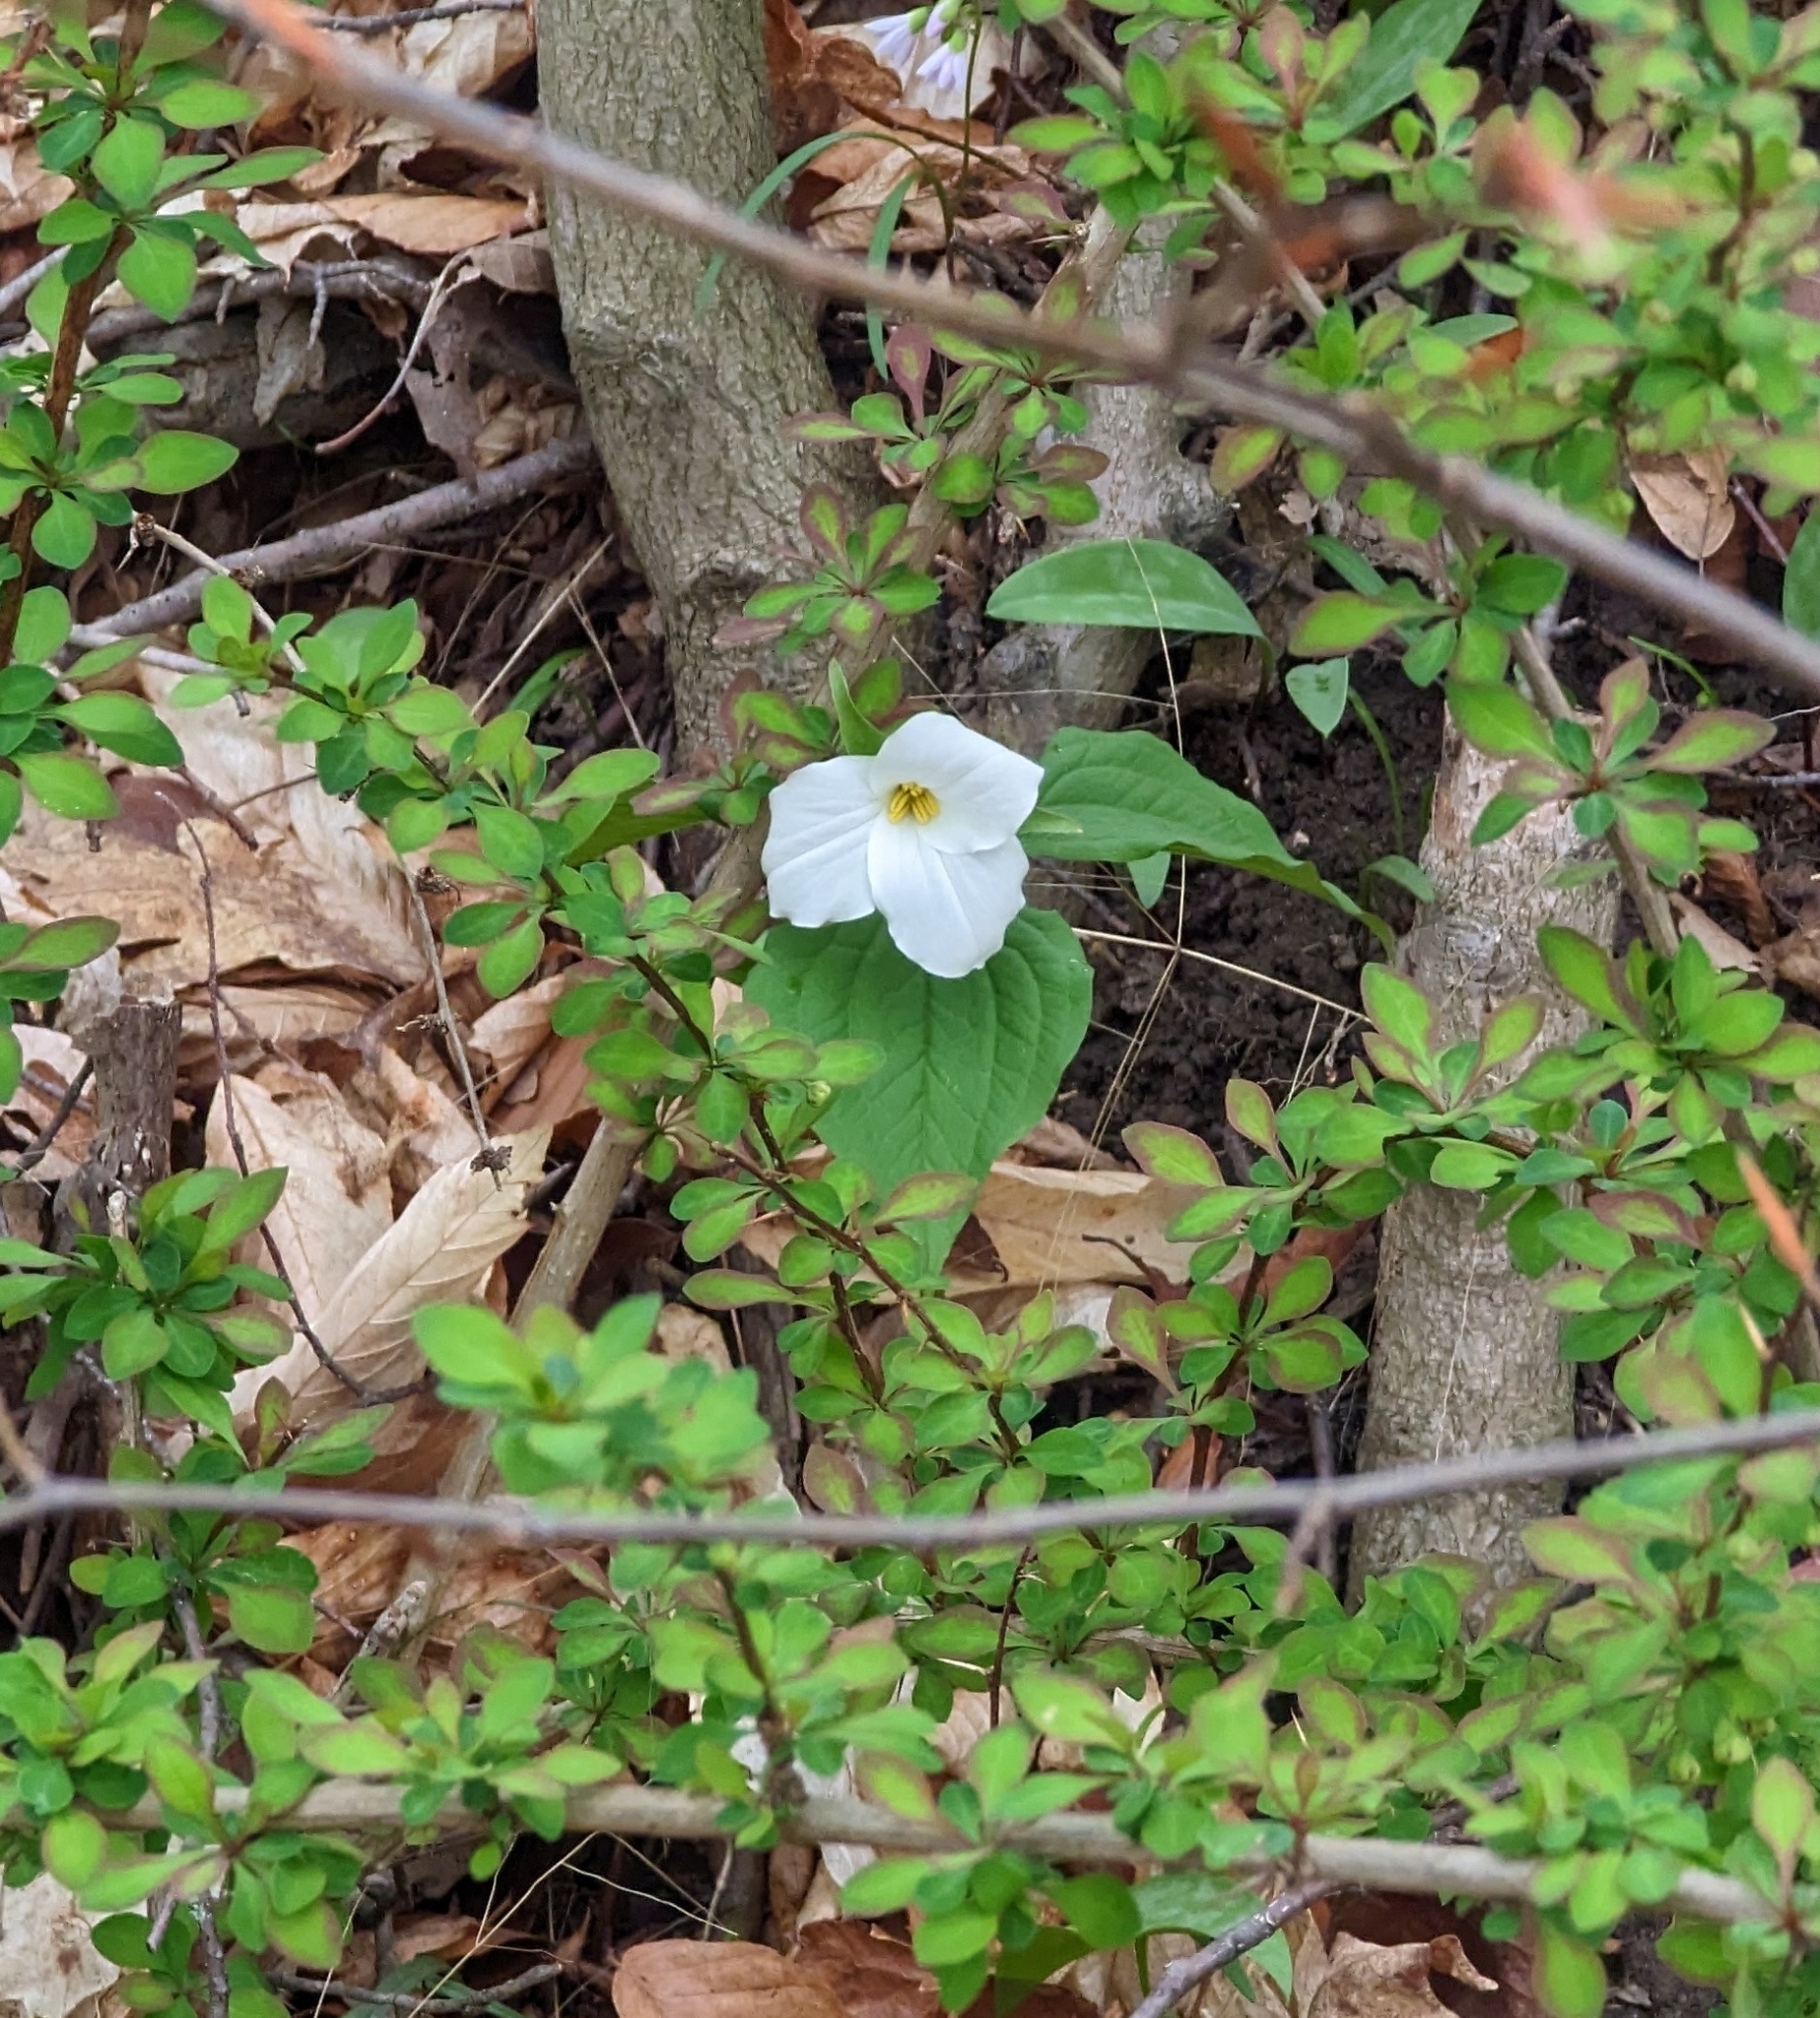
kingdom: Plantae
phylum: Tracheophyta
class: Liliopsida
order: Liliales
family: Melanthiaceae
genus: Trillium
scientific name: Trillium grandiflorum
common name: Great white trillium
